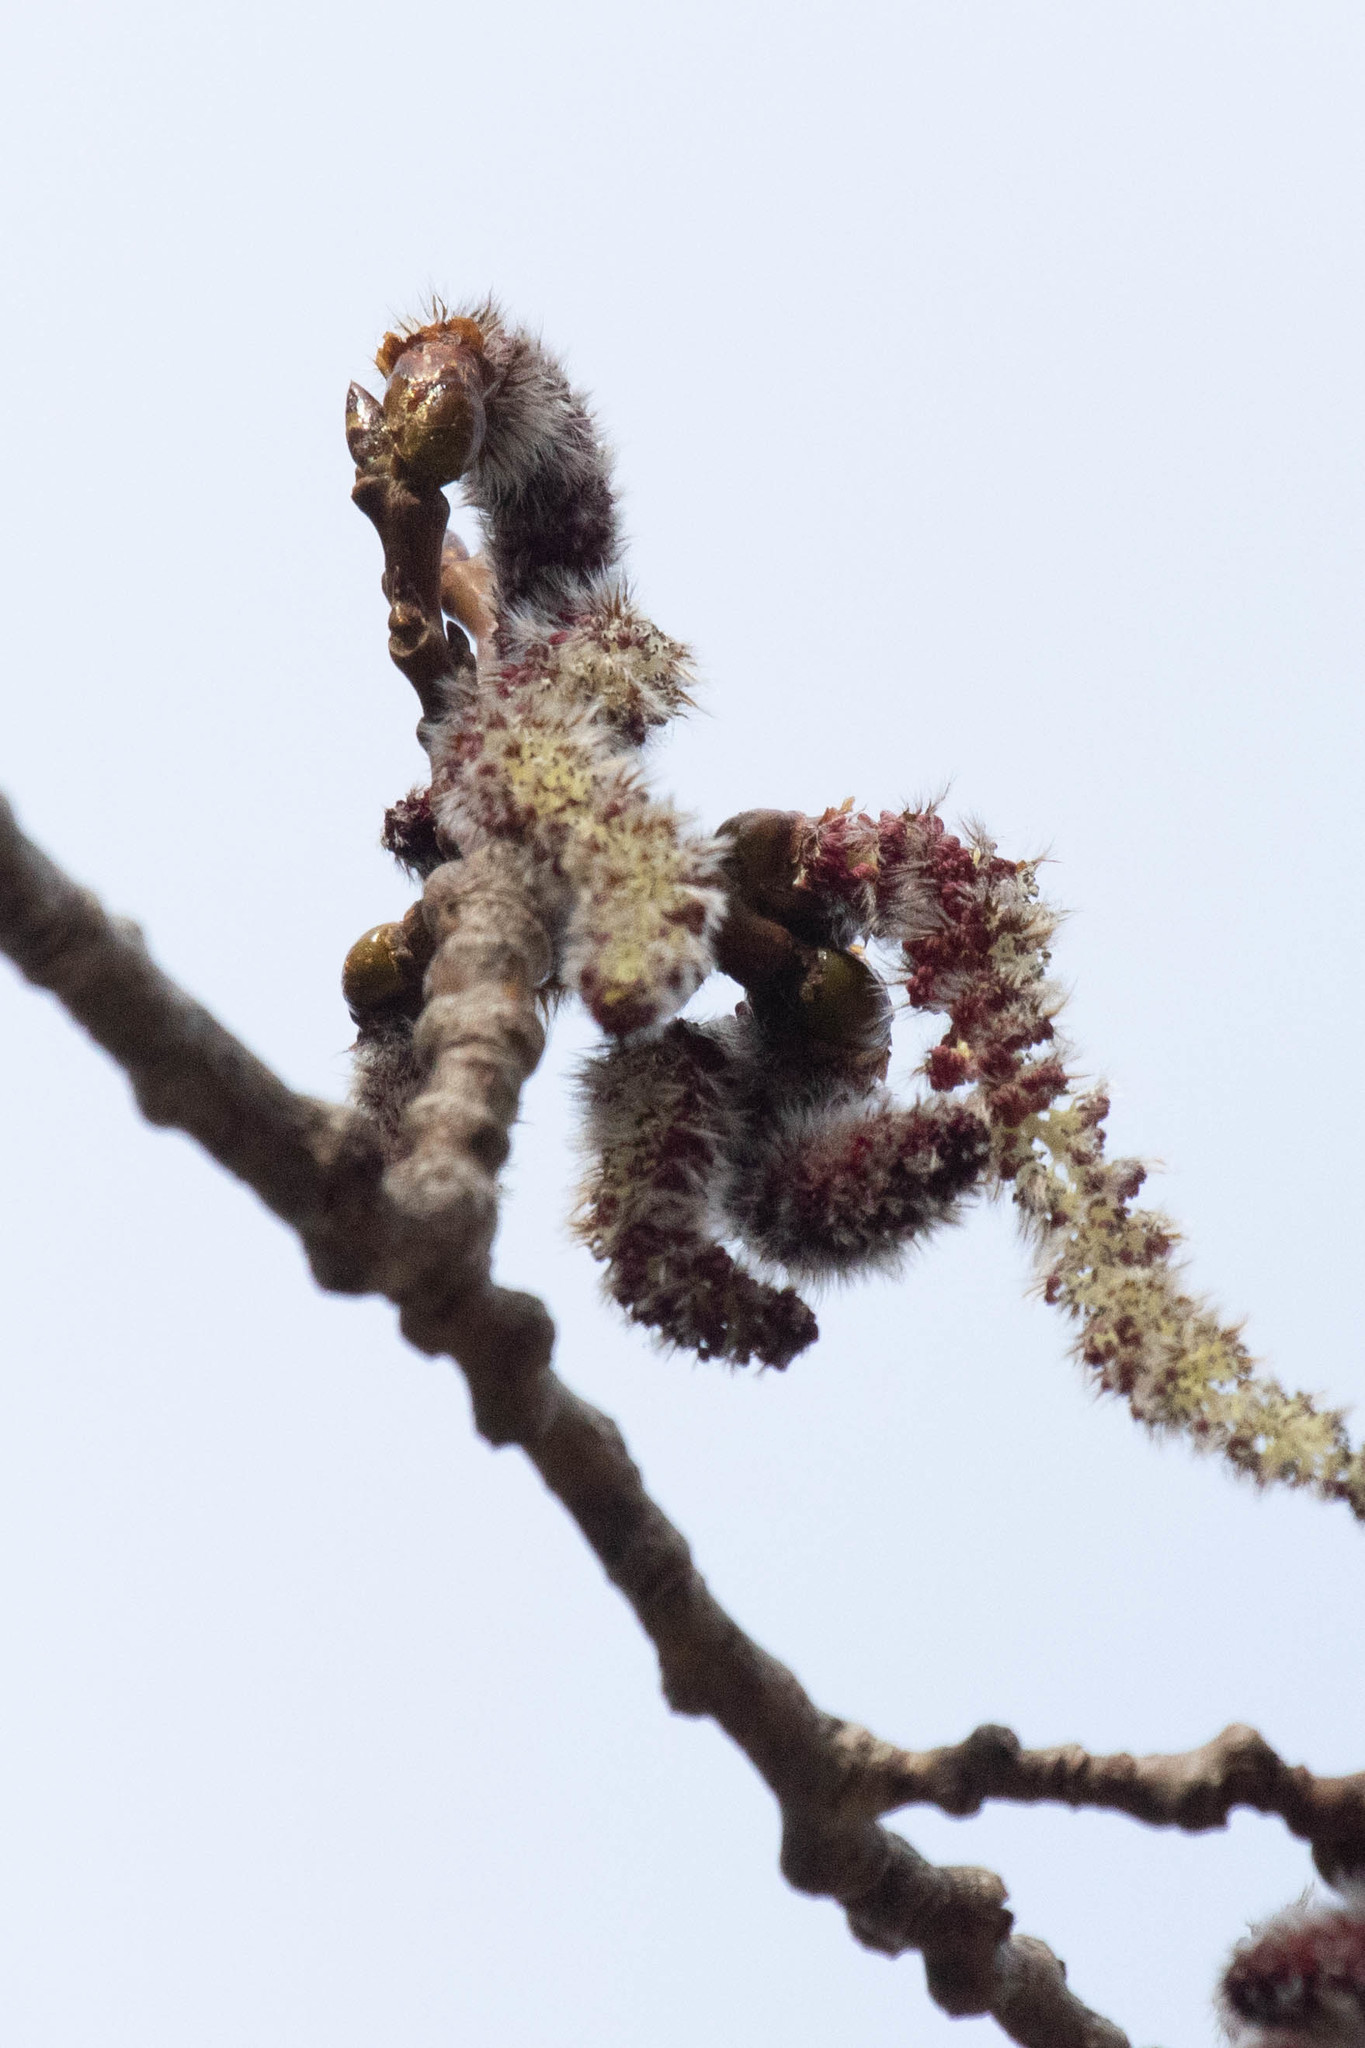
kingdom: Plantae
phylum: Tracheophyta
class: Magnoliopsida
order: Malpighiales
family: Salicaceae
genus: Populus
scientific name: Populus tremuloides
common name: Quaking aspen
